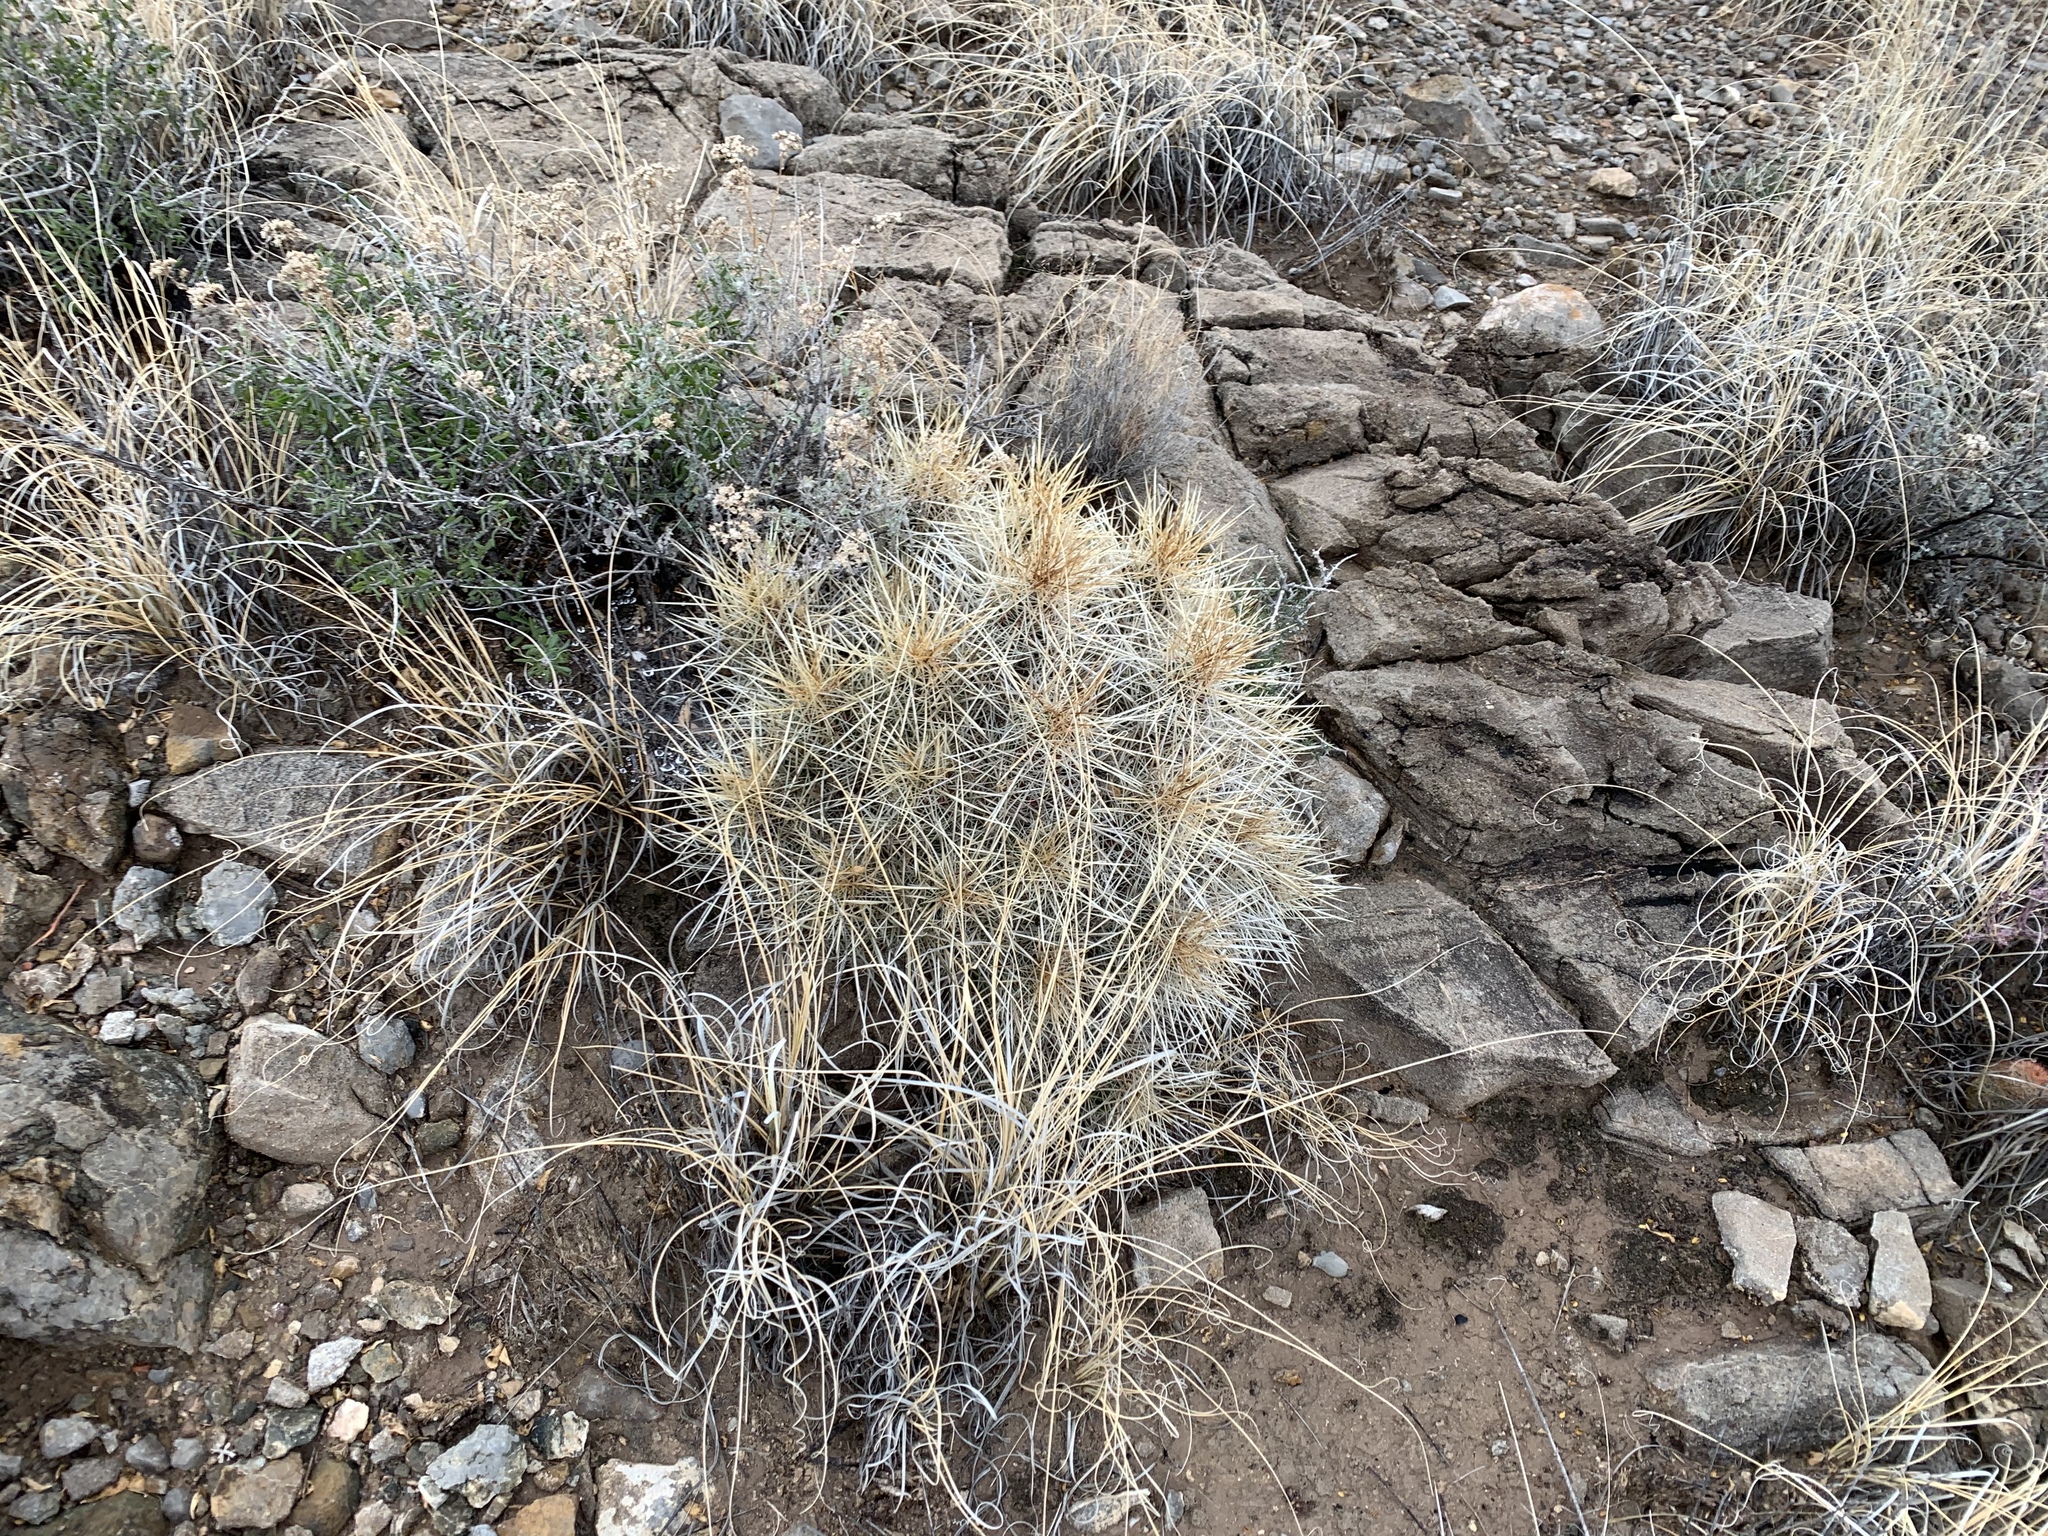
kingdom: Plantae
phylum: Tracheophyta
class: Magnoliopsida
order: Caryophyllales
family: Cactaceae
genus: Echinocereus
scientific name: Echinocereus stramineus
